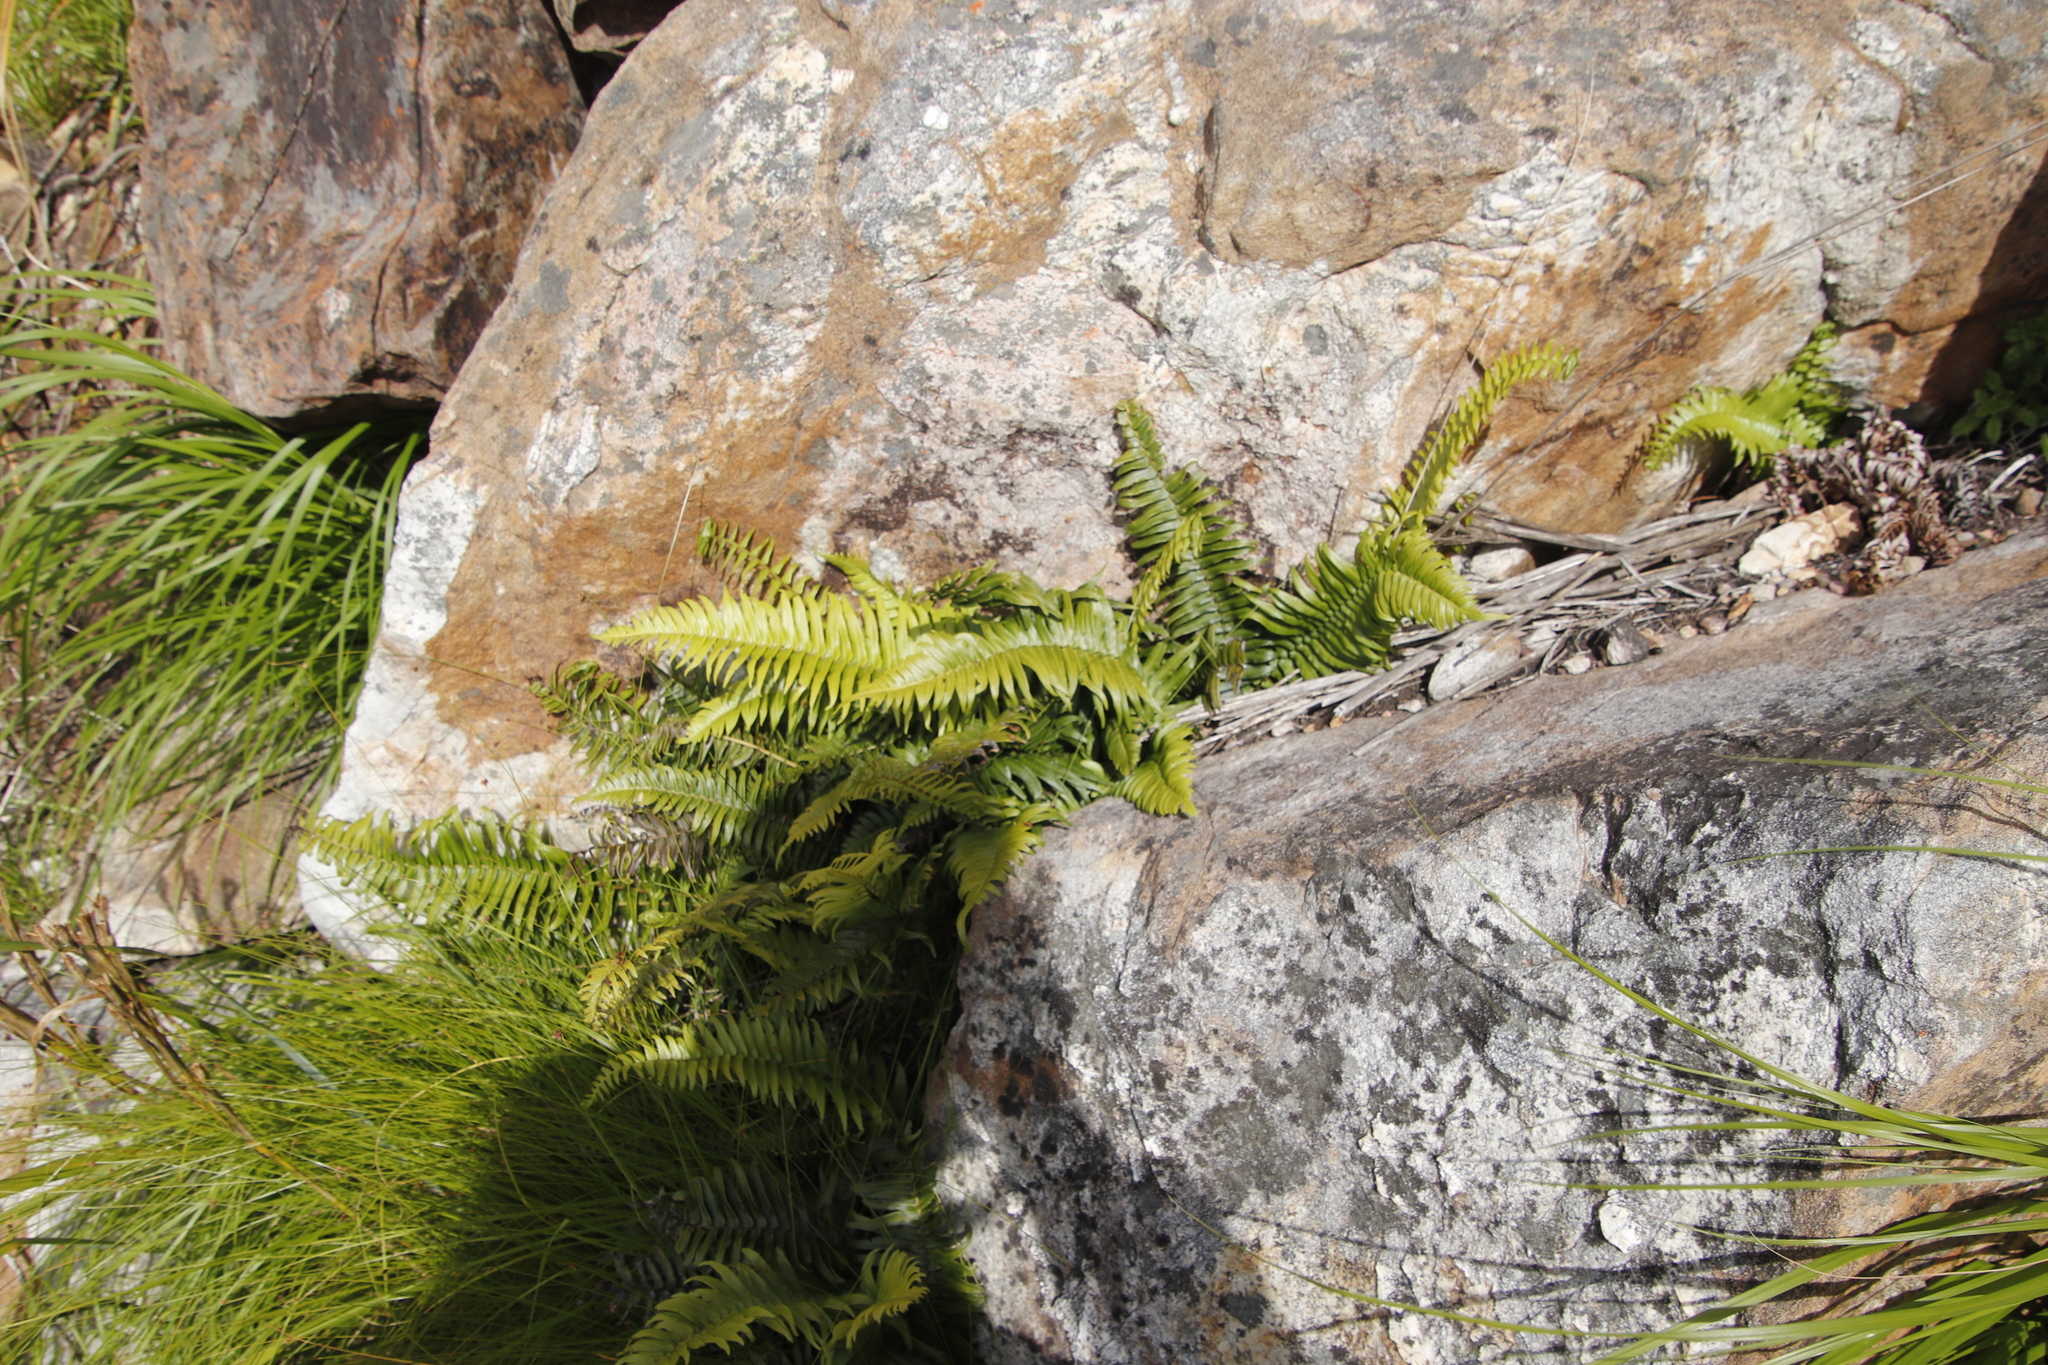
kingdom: Plantae
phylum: Tracheophyta
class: Polypodiopsida
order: Polypodiales
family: Blechnaceae
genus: Blechnum
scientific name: Blechnum punctulatum
